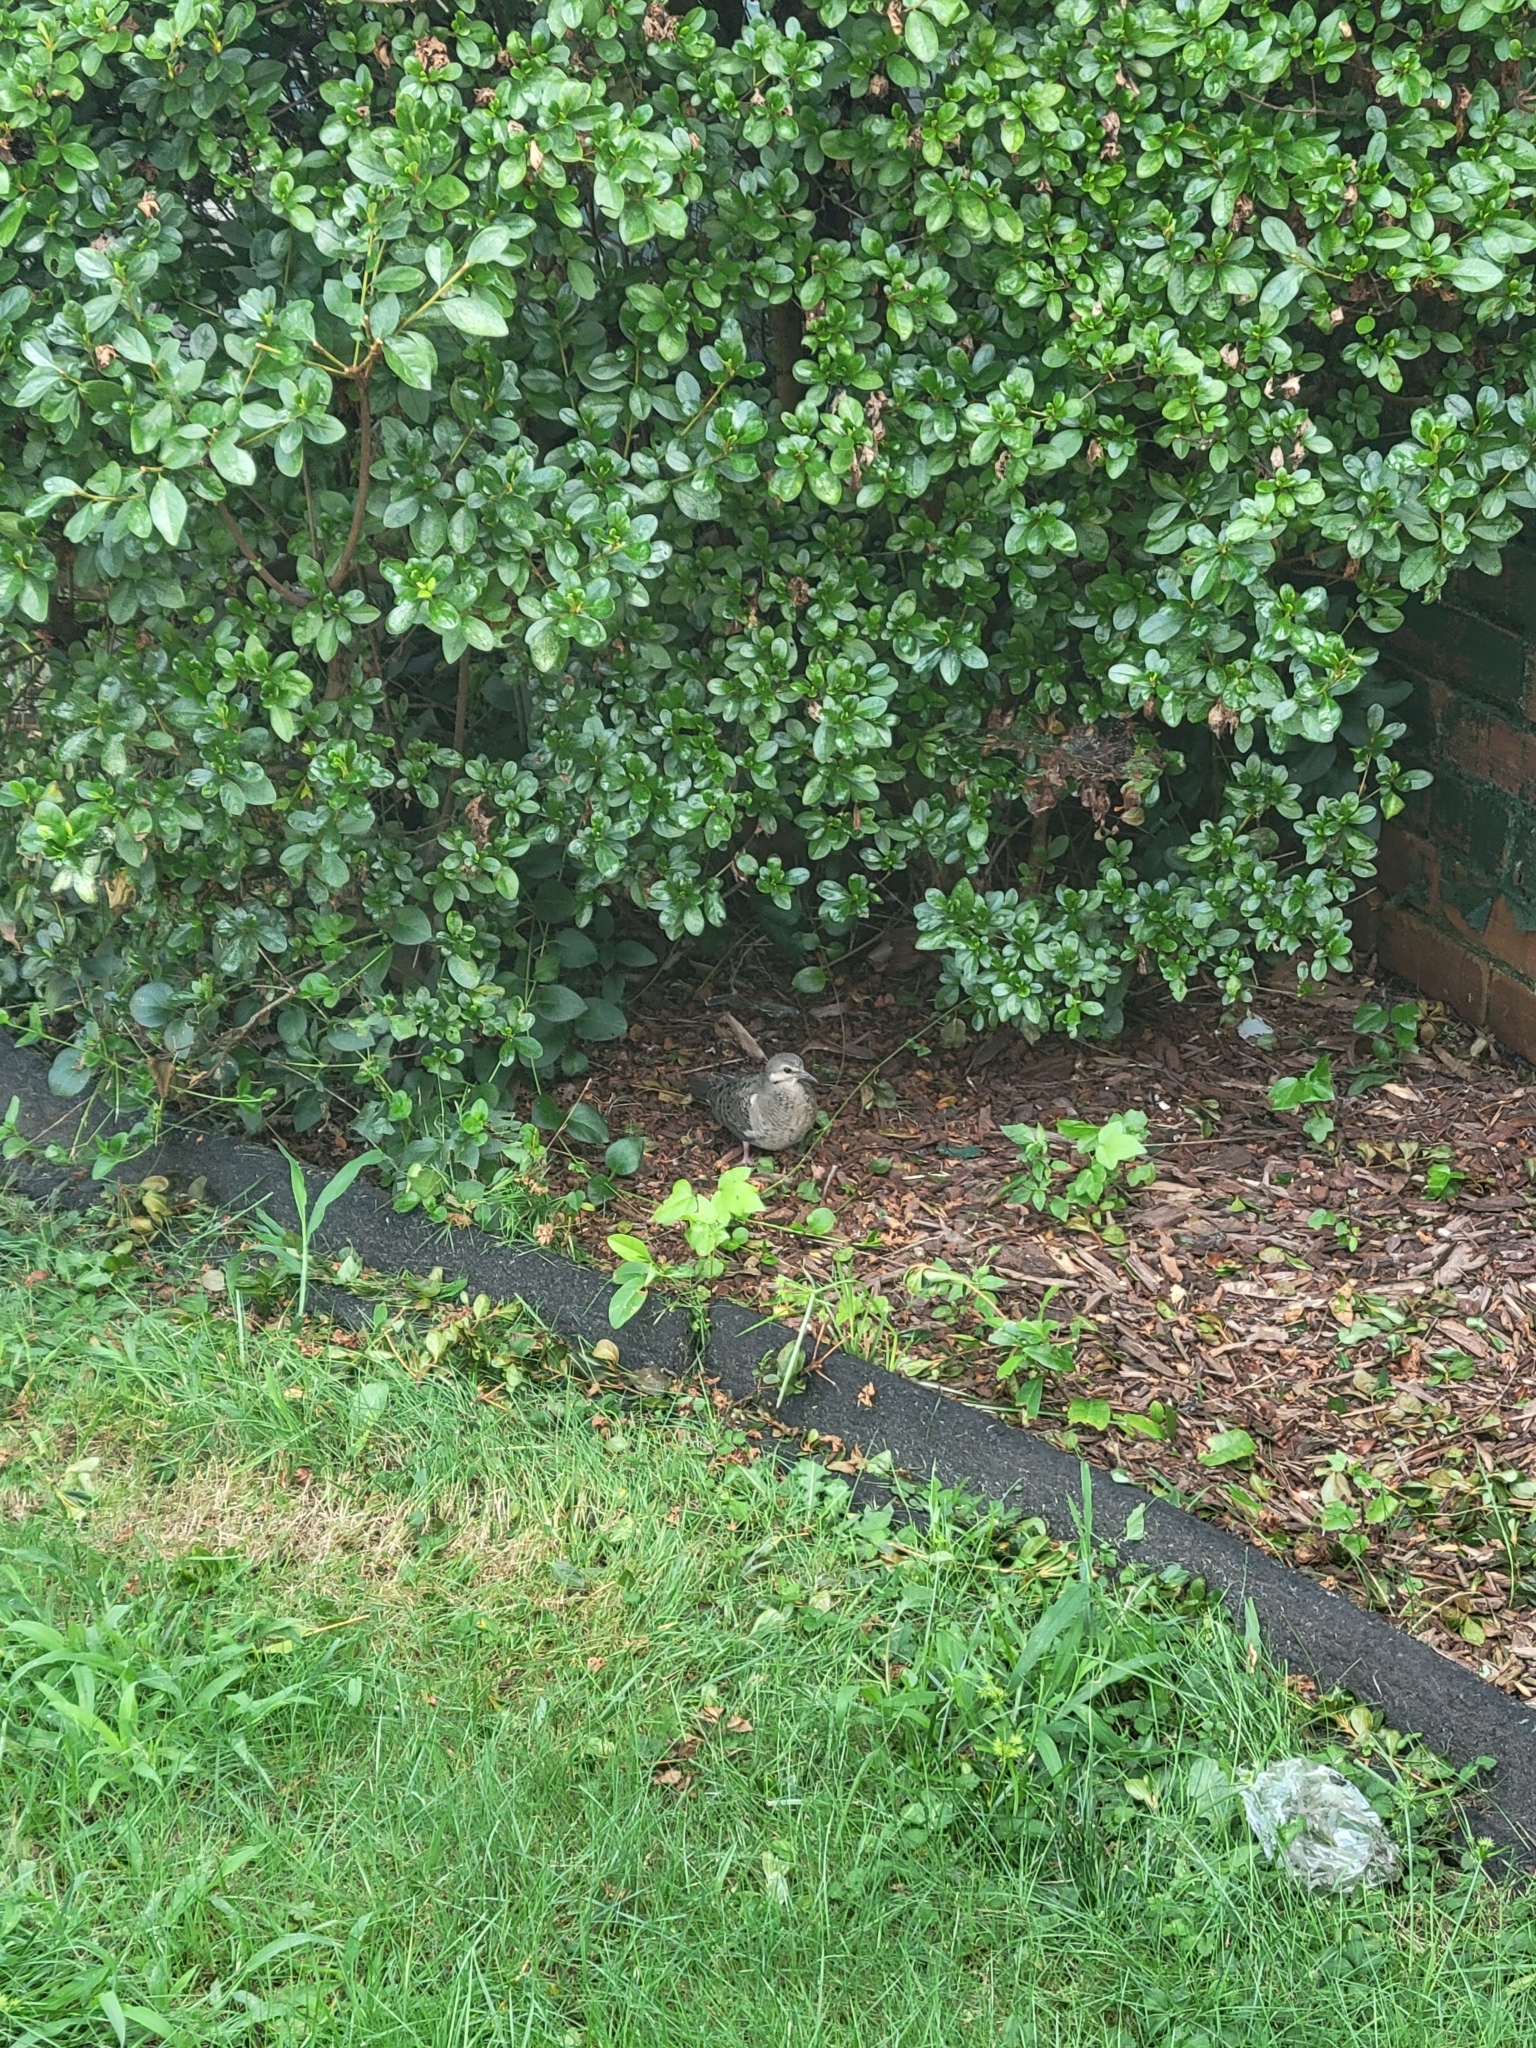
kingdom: Animalia
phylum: Chordata
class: Aves
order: Columbiformes
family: Columbidae
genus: Zenaida
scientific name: Zenaida macroura
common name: Mourning dove
